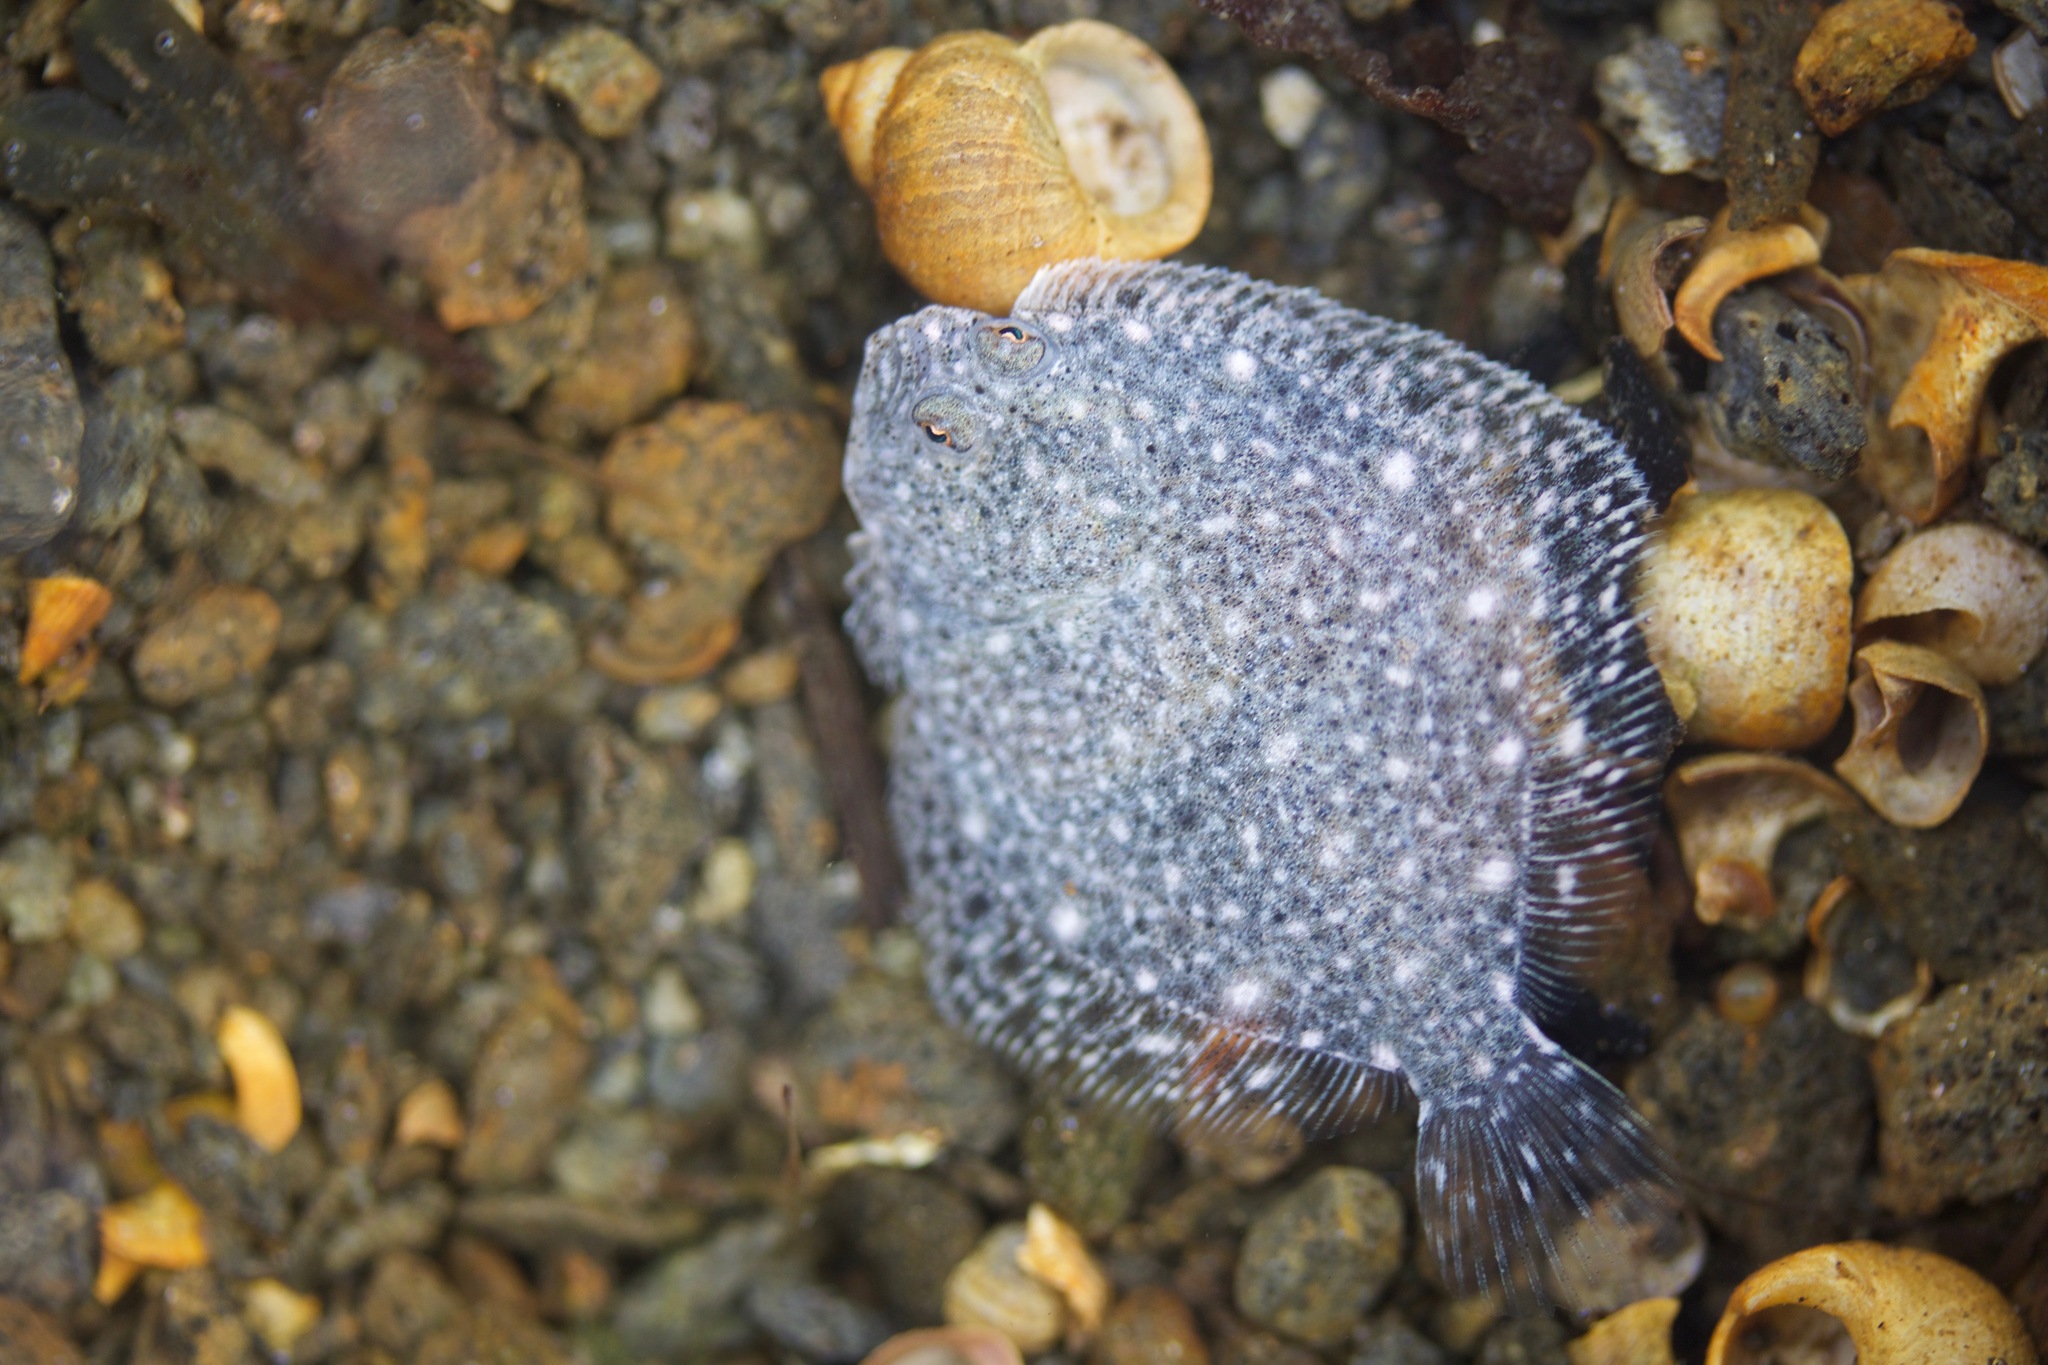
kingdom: Animalia
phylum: Chordata
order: Pleuronectiformes
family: Scophthalmidae
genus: Scophthalmus
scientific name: Scophthalmus maximus
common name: Turbot
